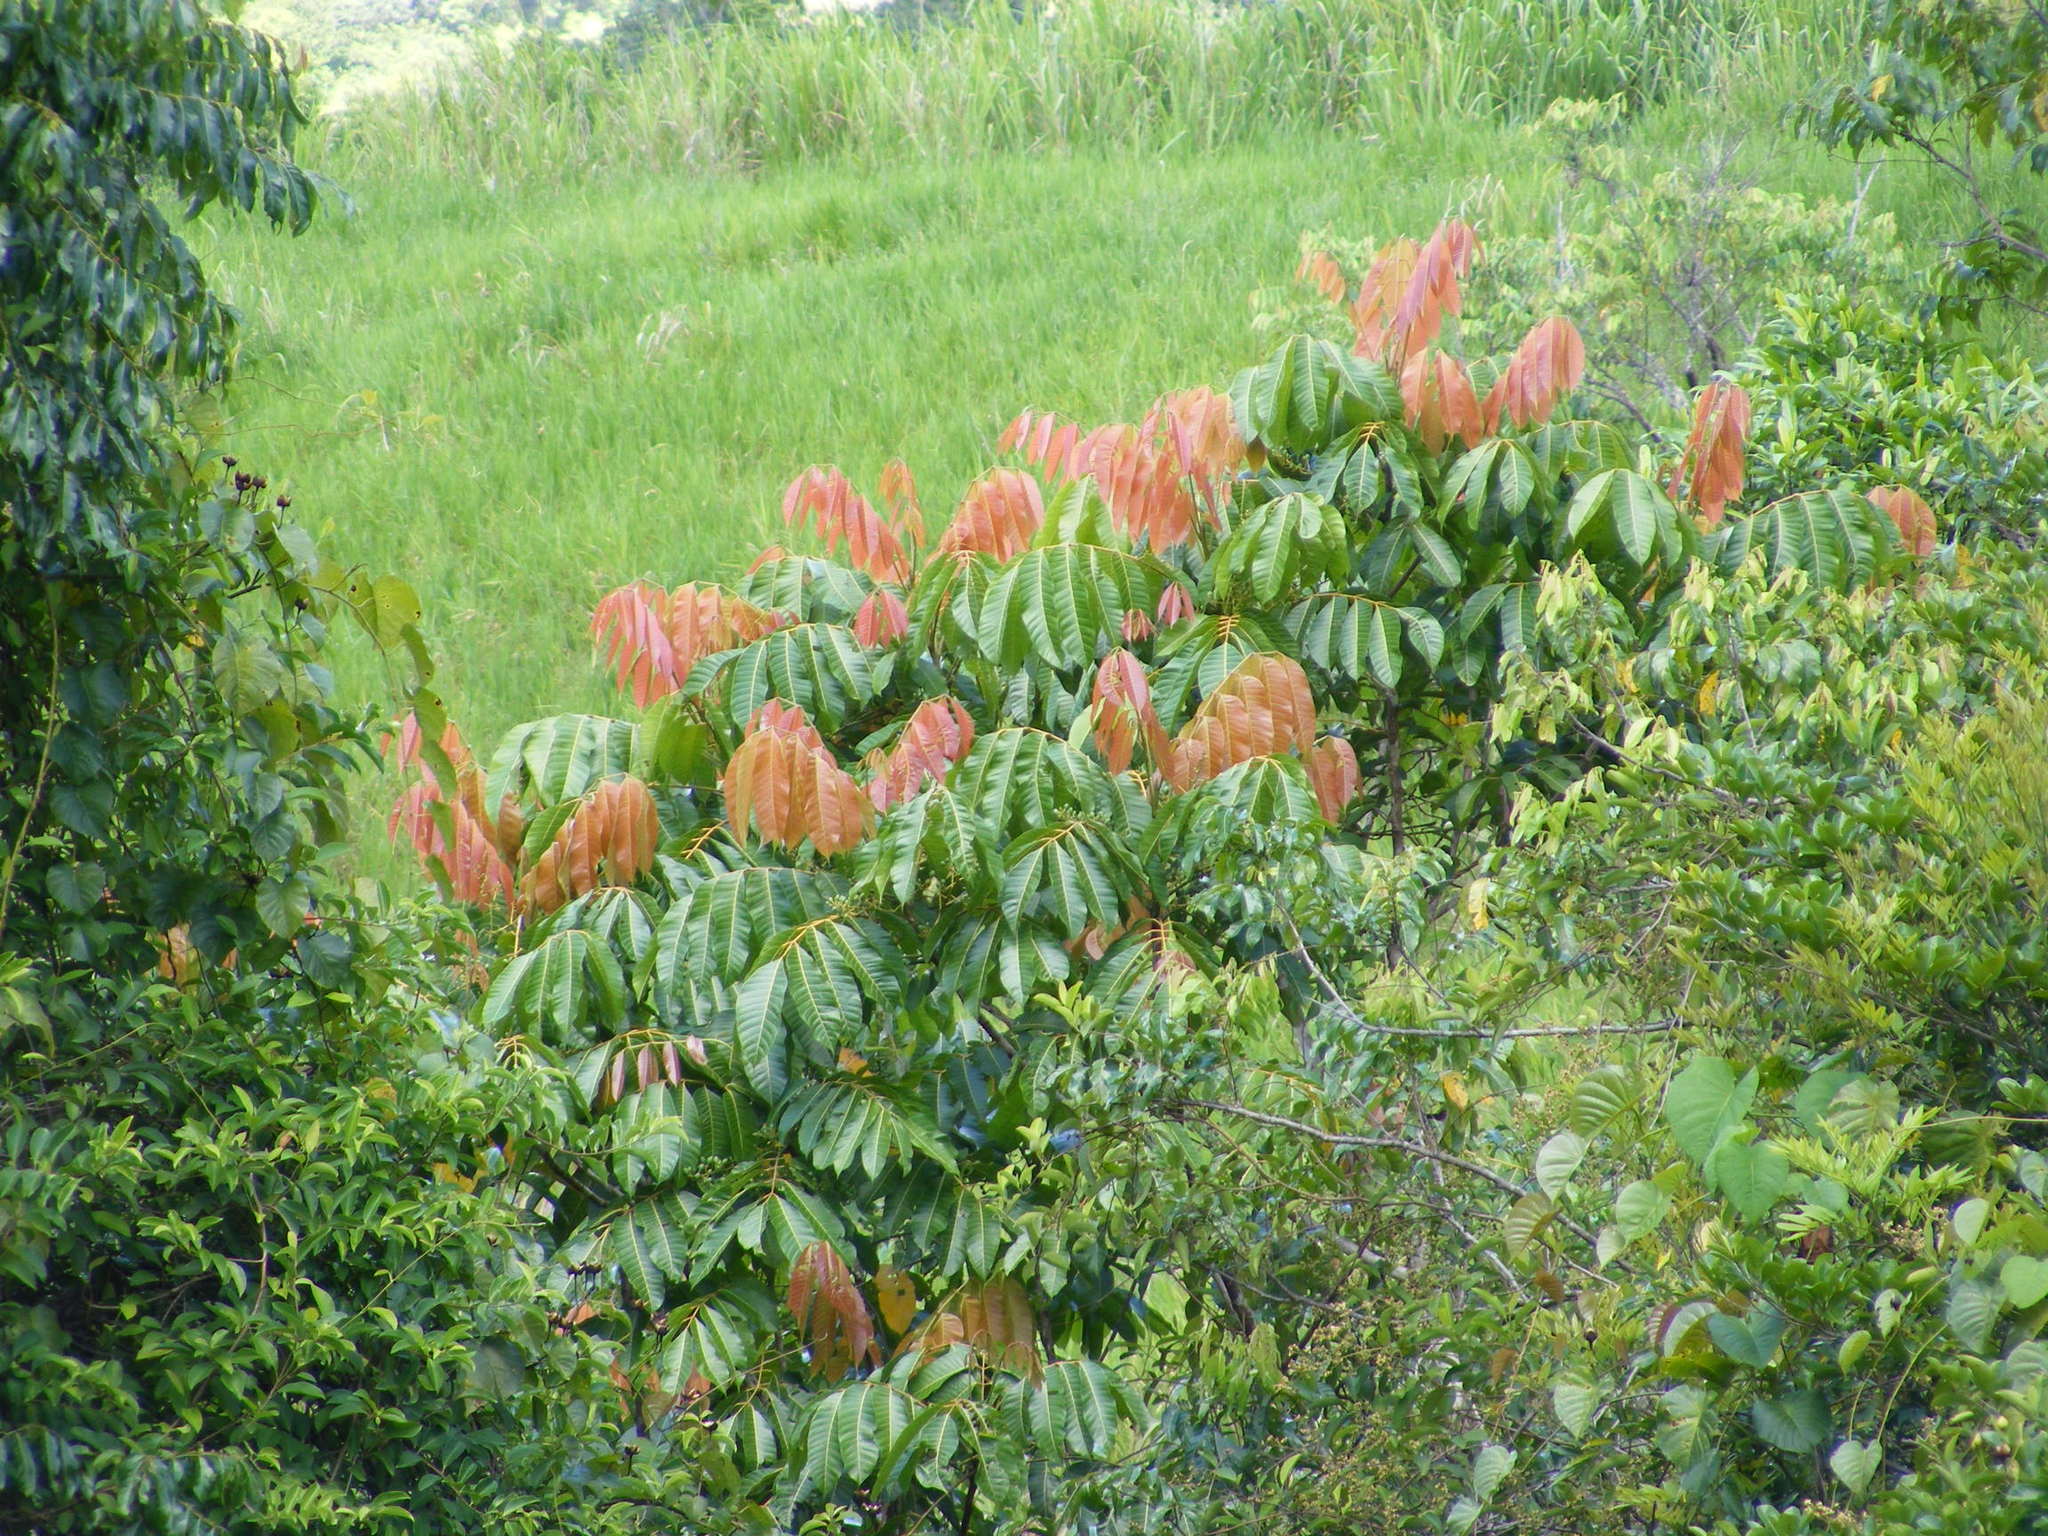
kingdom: Plantae
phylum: Tracheophyta
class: Magnoliopsida
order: Sapindales
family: Burseraceae
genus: Canarium
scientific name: Canarium acutifolium
